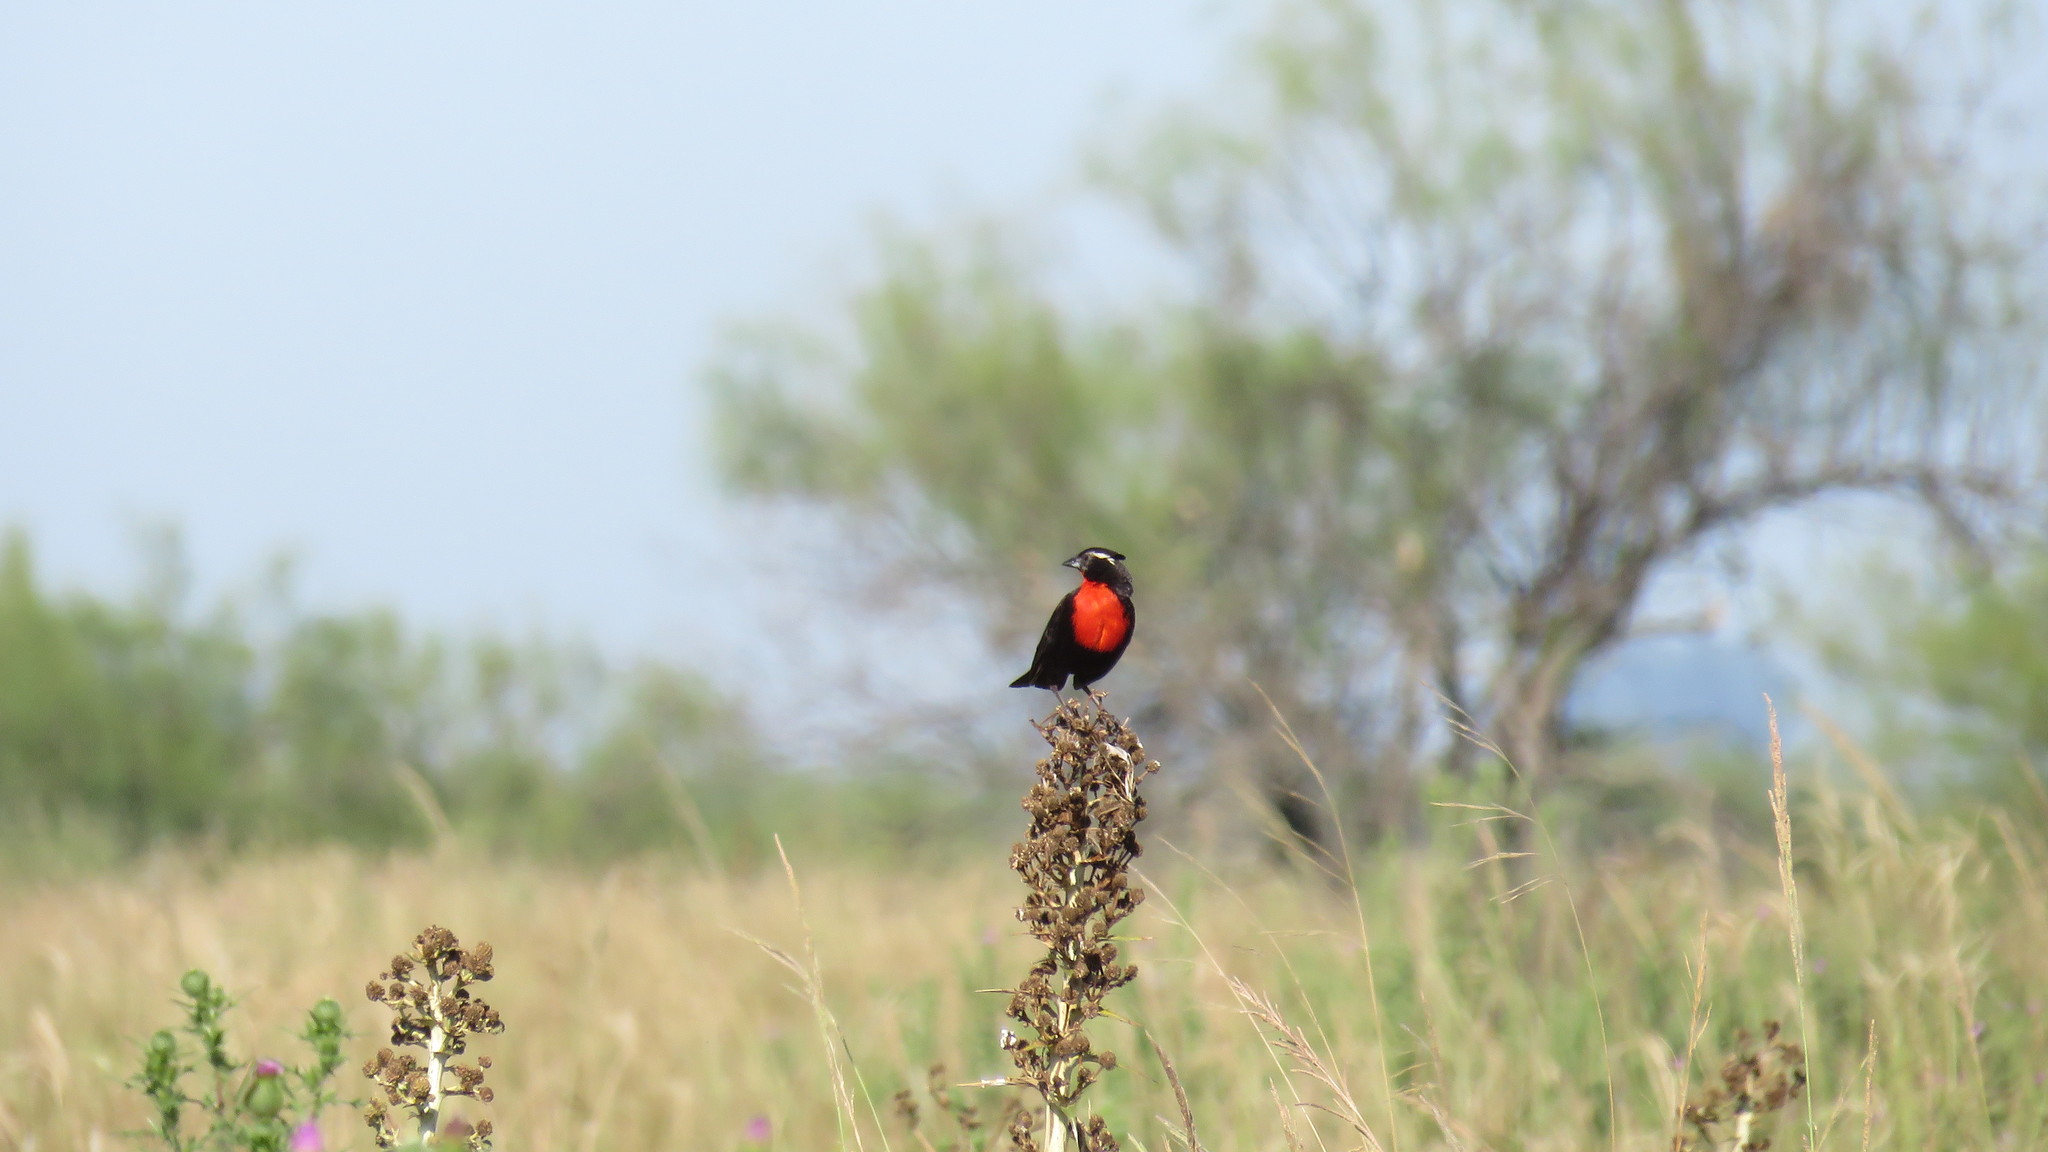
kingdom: Animalia
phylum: Chordata
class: Aves
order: Passeriformes
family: Icteridae
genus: Sturnella
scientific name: Sturnella superciliaris
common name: White-browed blackbird
